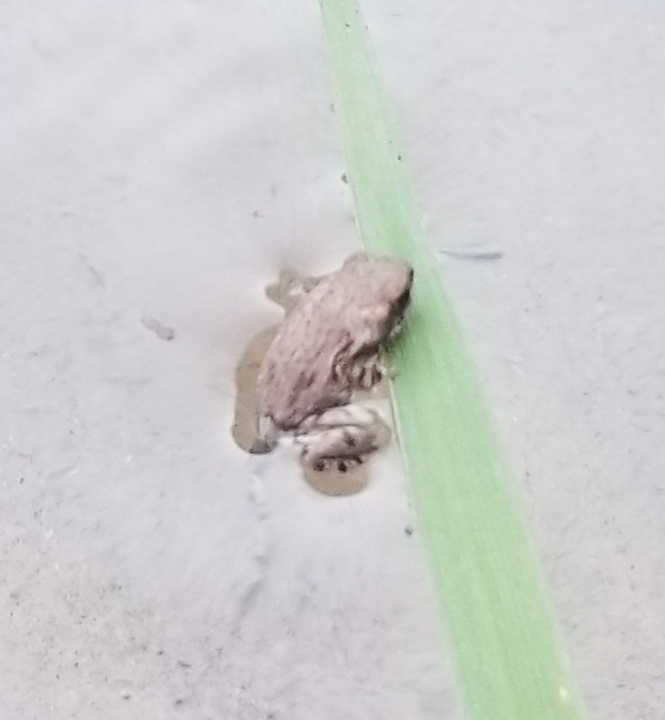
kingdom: Animalia
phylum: Chordata
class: Amphibia
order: Anura
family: Bufonidae
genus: Anaxyrus
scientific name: Anaxyrus punctatus
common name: Red-spotted toad
